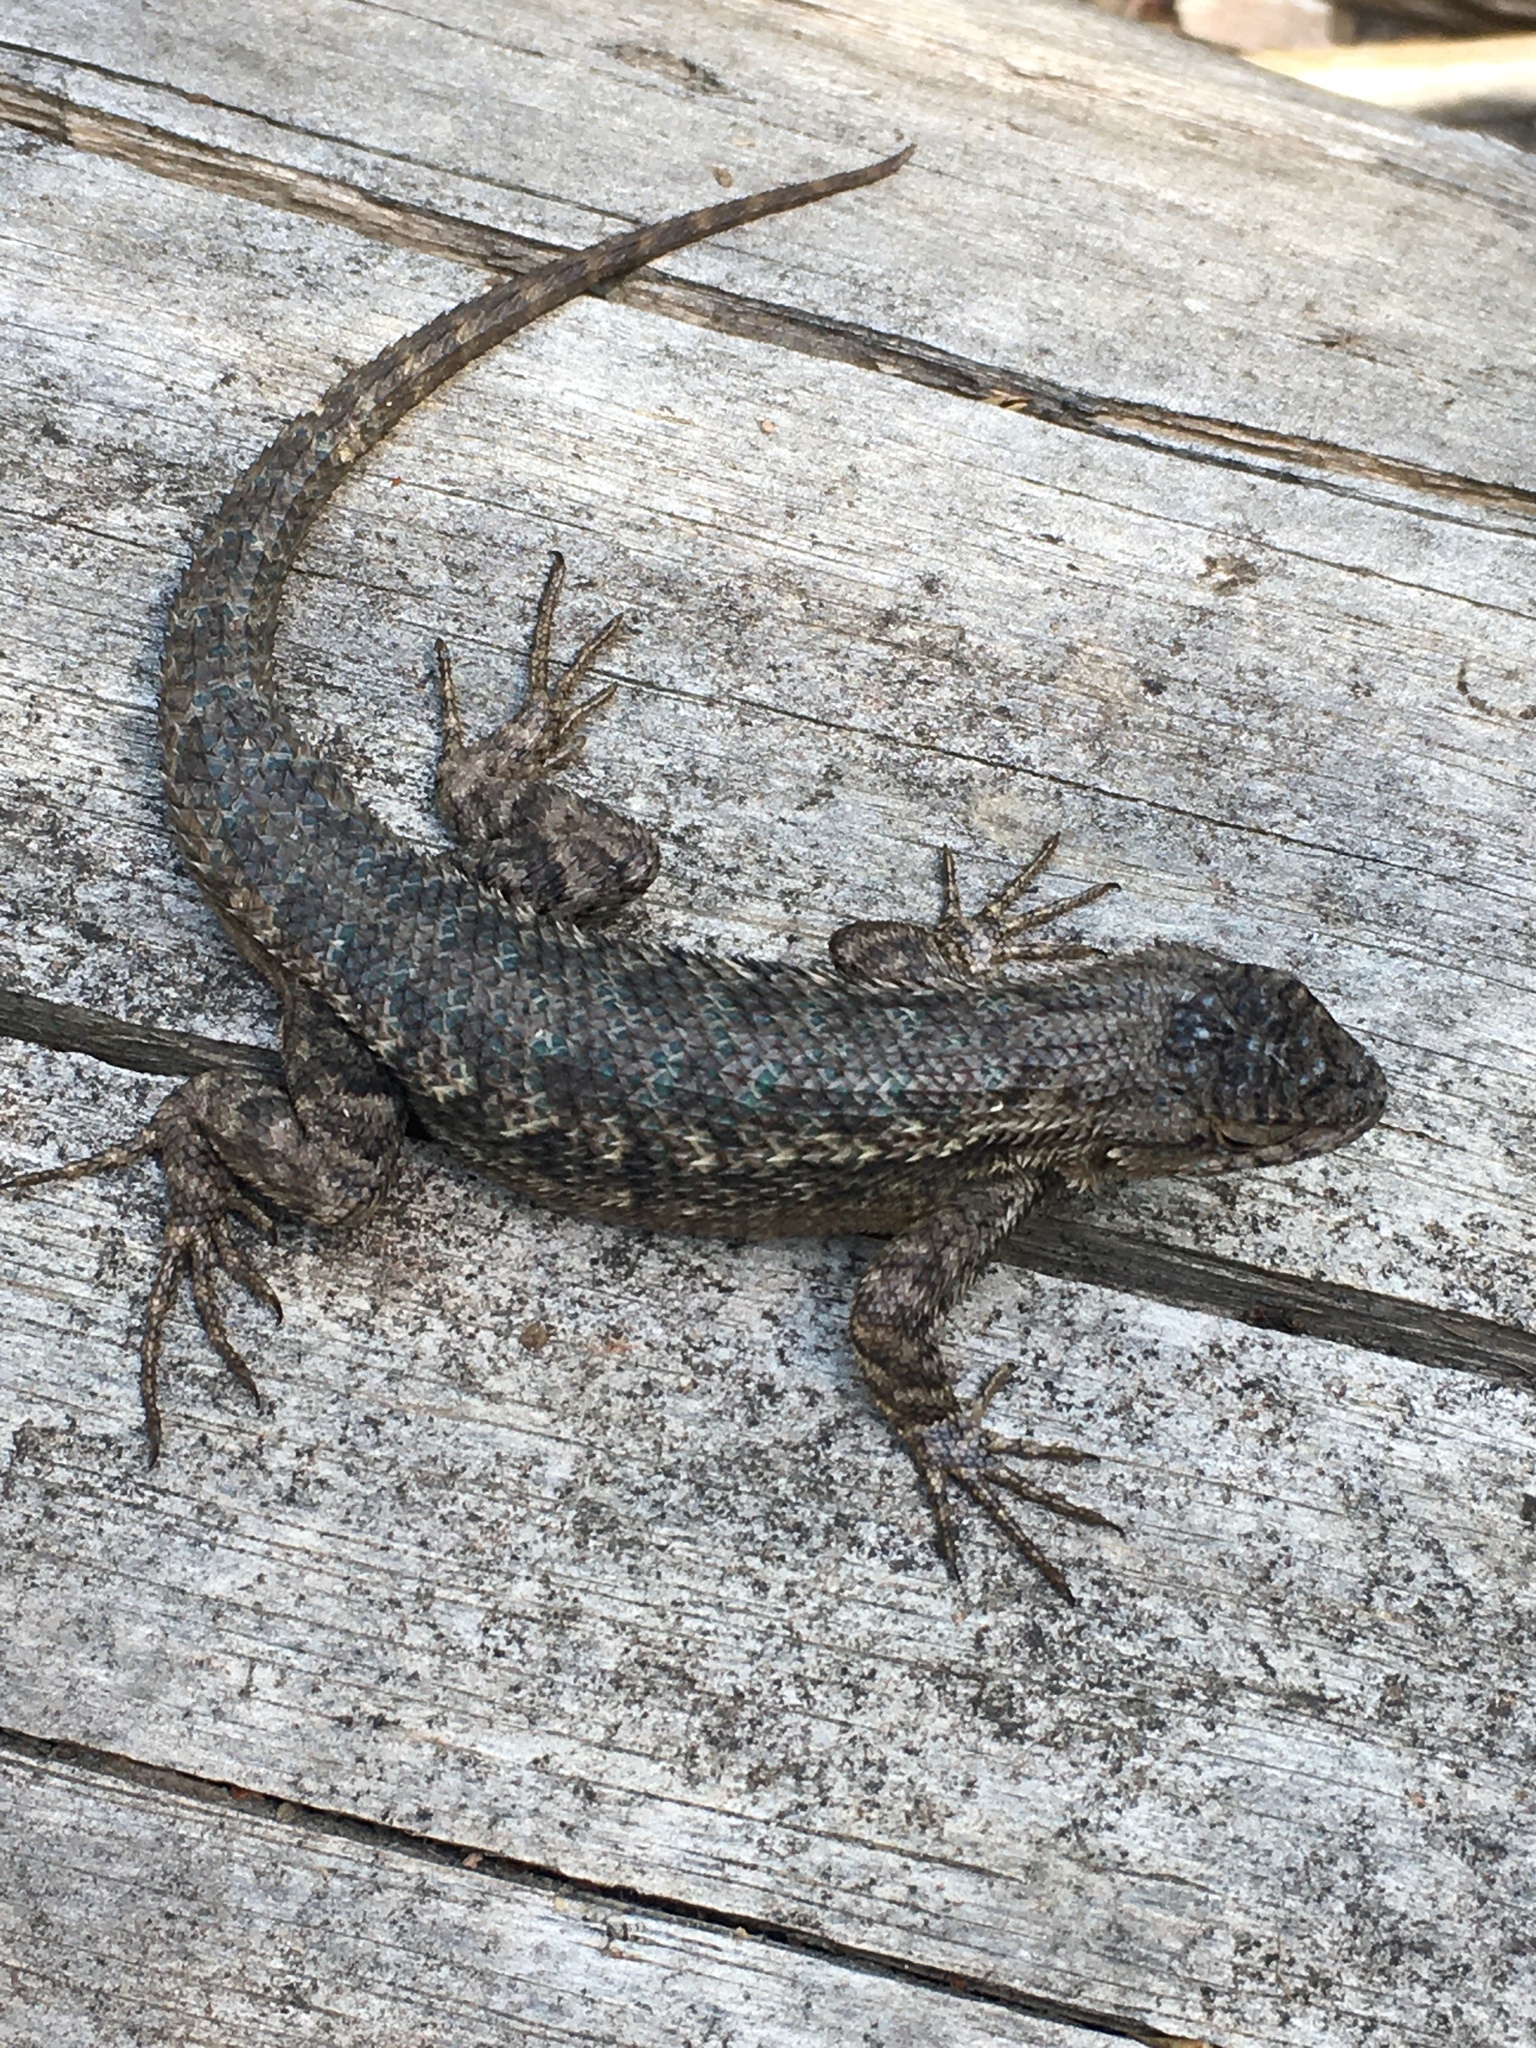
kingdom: Animalia
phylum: Chordata
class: Squamata
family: Phrynosomatidae
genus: Sceloporus
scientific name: Sceloporus occidentalis
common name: Western fence lizard
